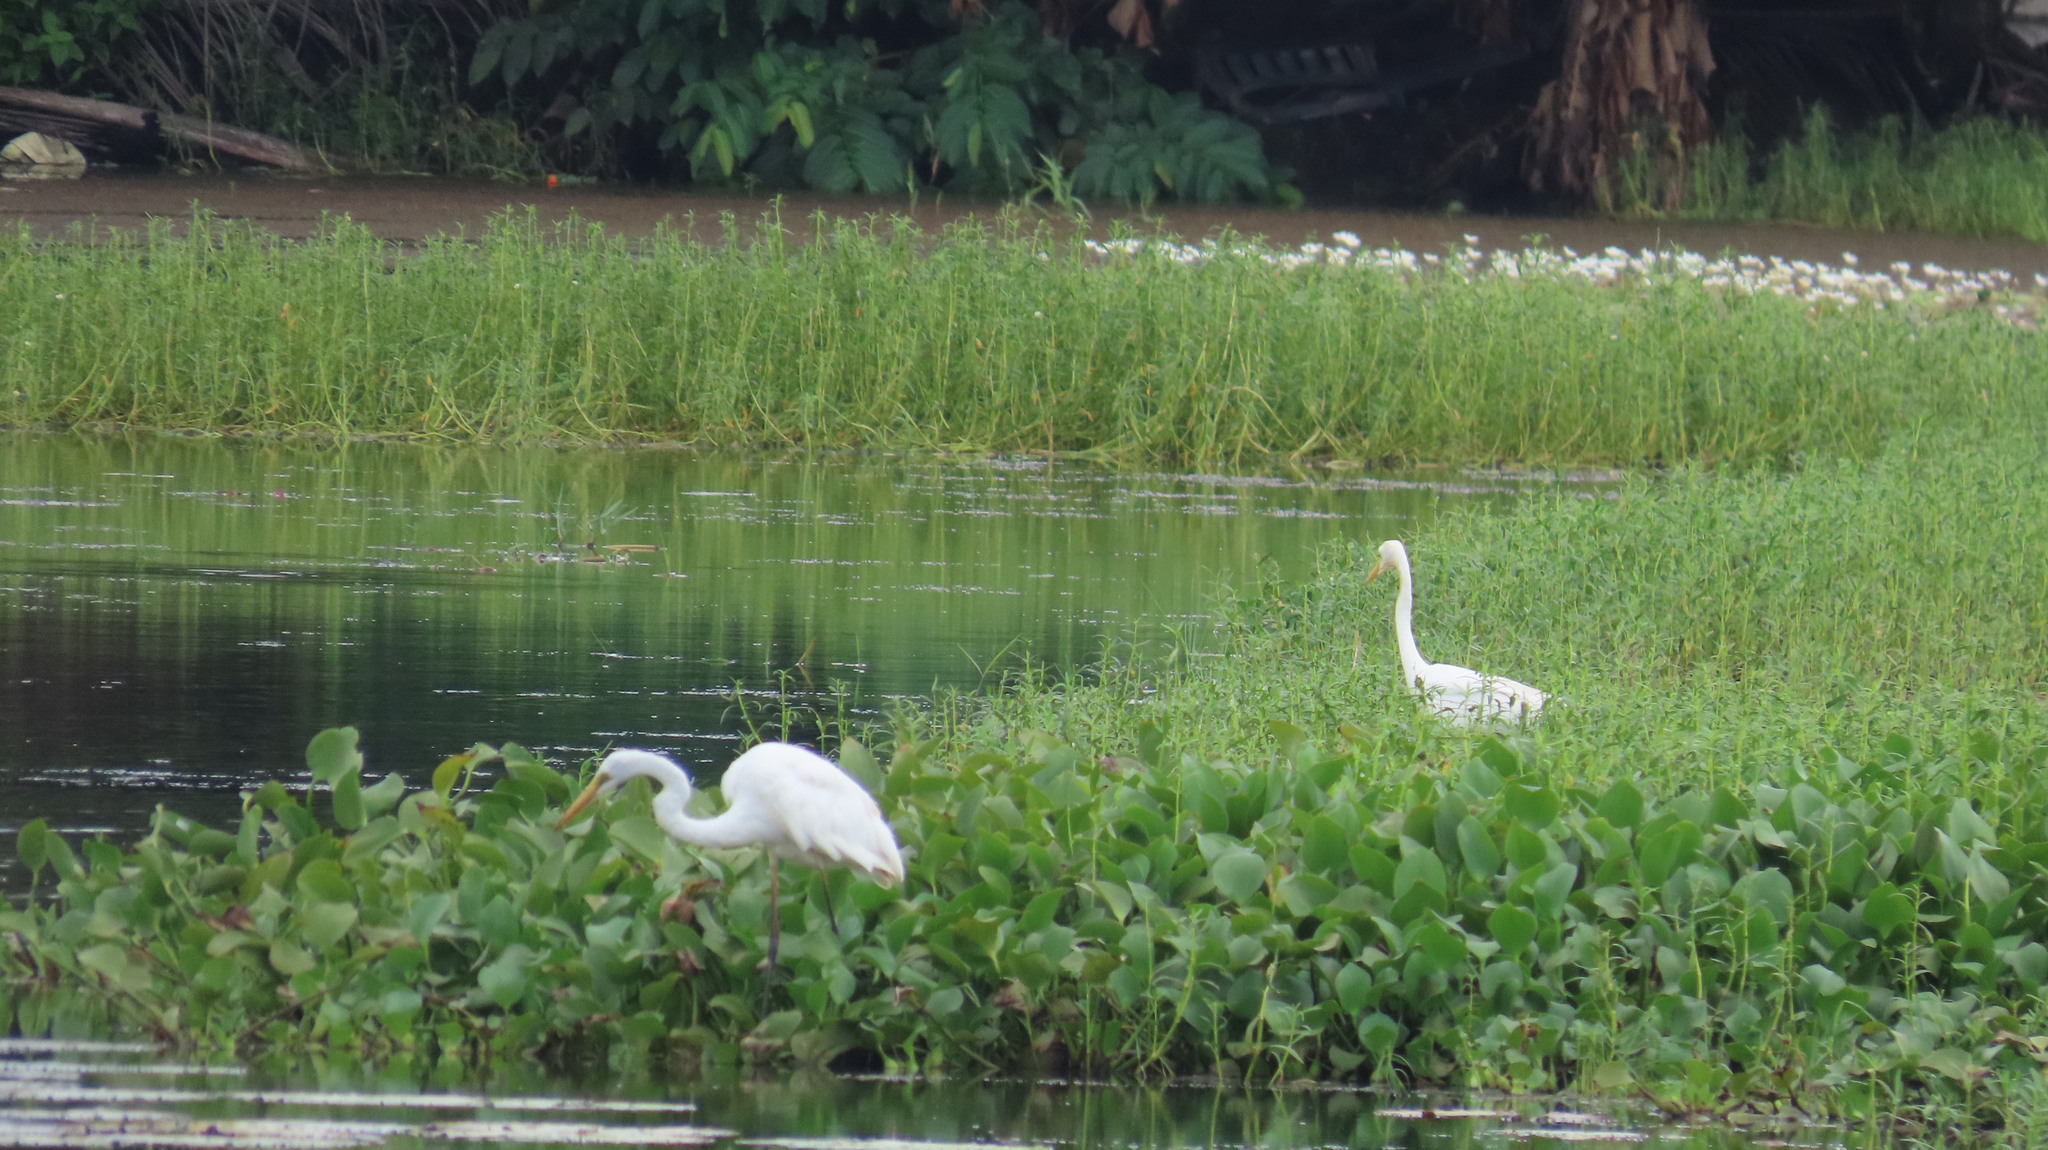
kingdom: Animalia
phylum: Chordata
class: Aves
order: Pelecaniformes
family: Ardeidae
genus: Ardea
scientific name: Ardea alba
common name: Great egret
